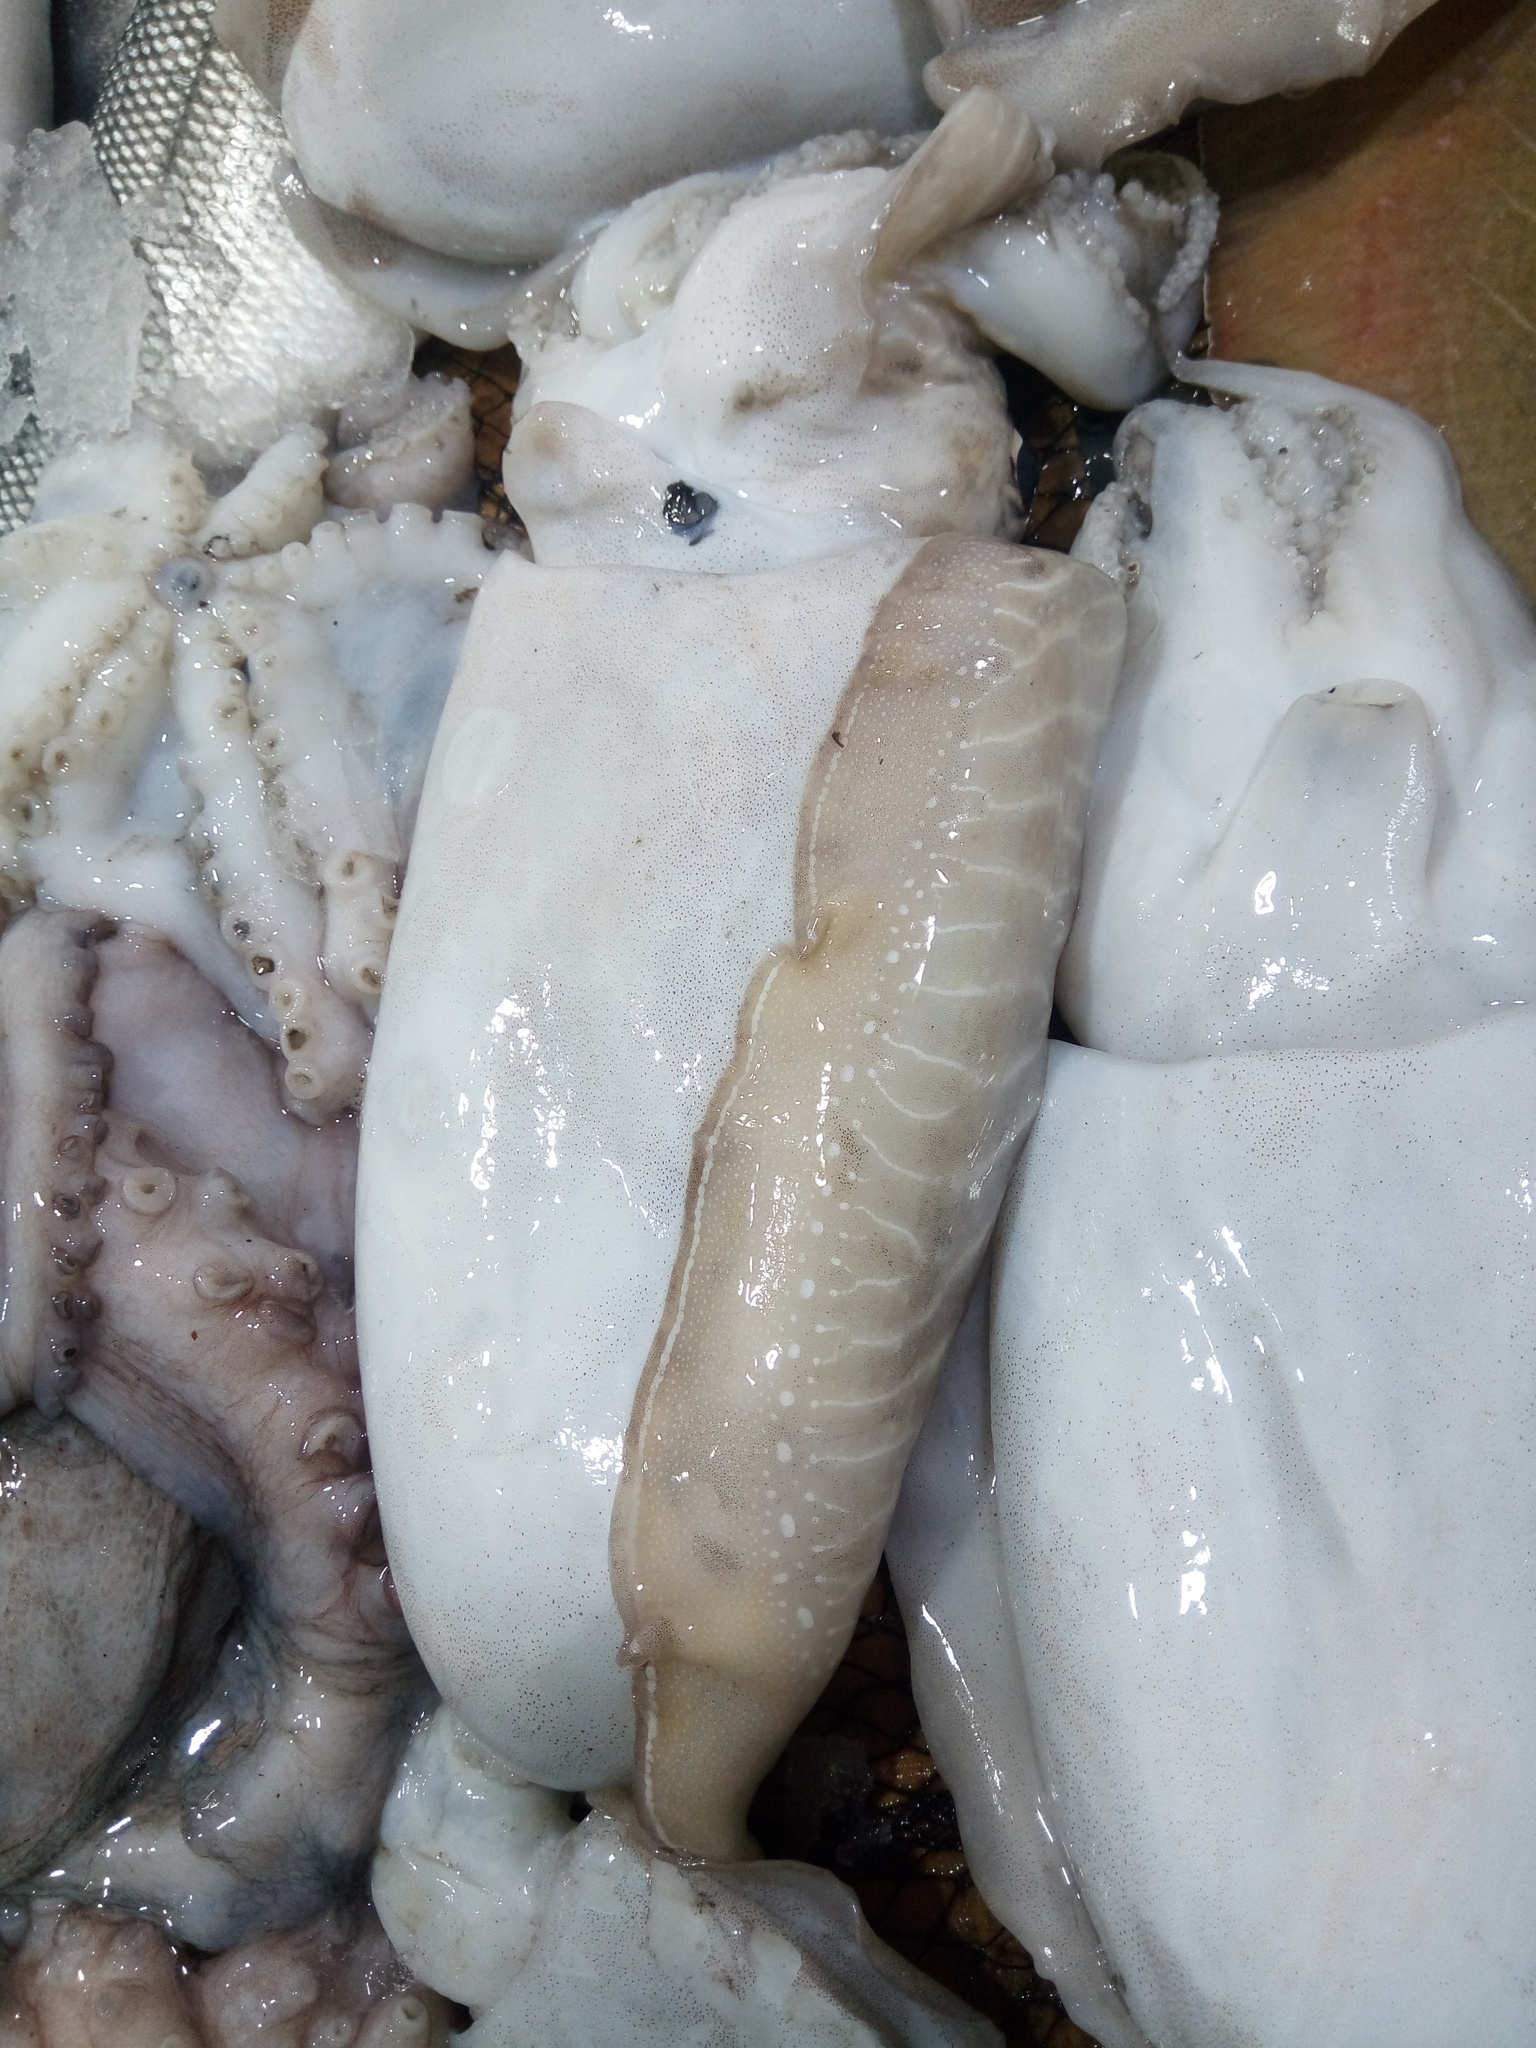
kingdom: Animalia
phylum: Mollusca
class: Cephalopoda
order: Sepiida
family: Sepiidae
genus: Sepia
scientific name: Sepia officinalis
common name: Common cuttlefish
